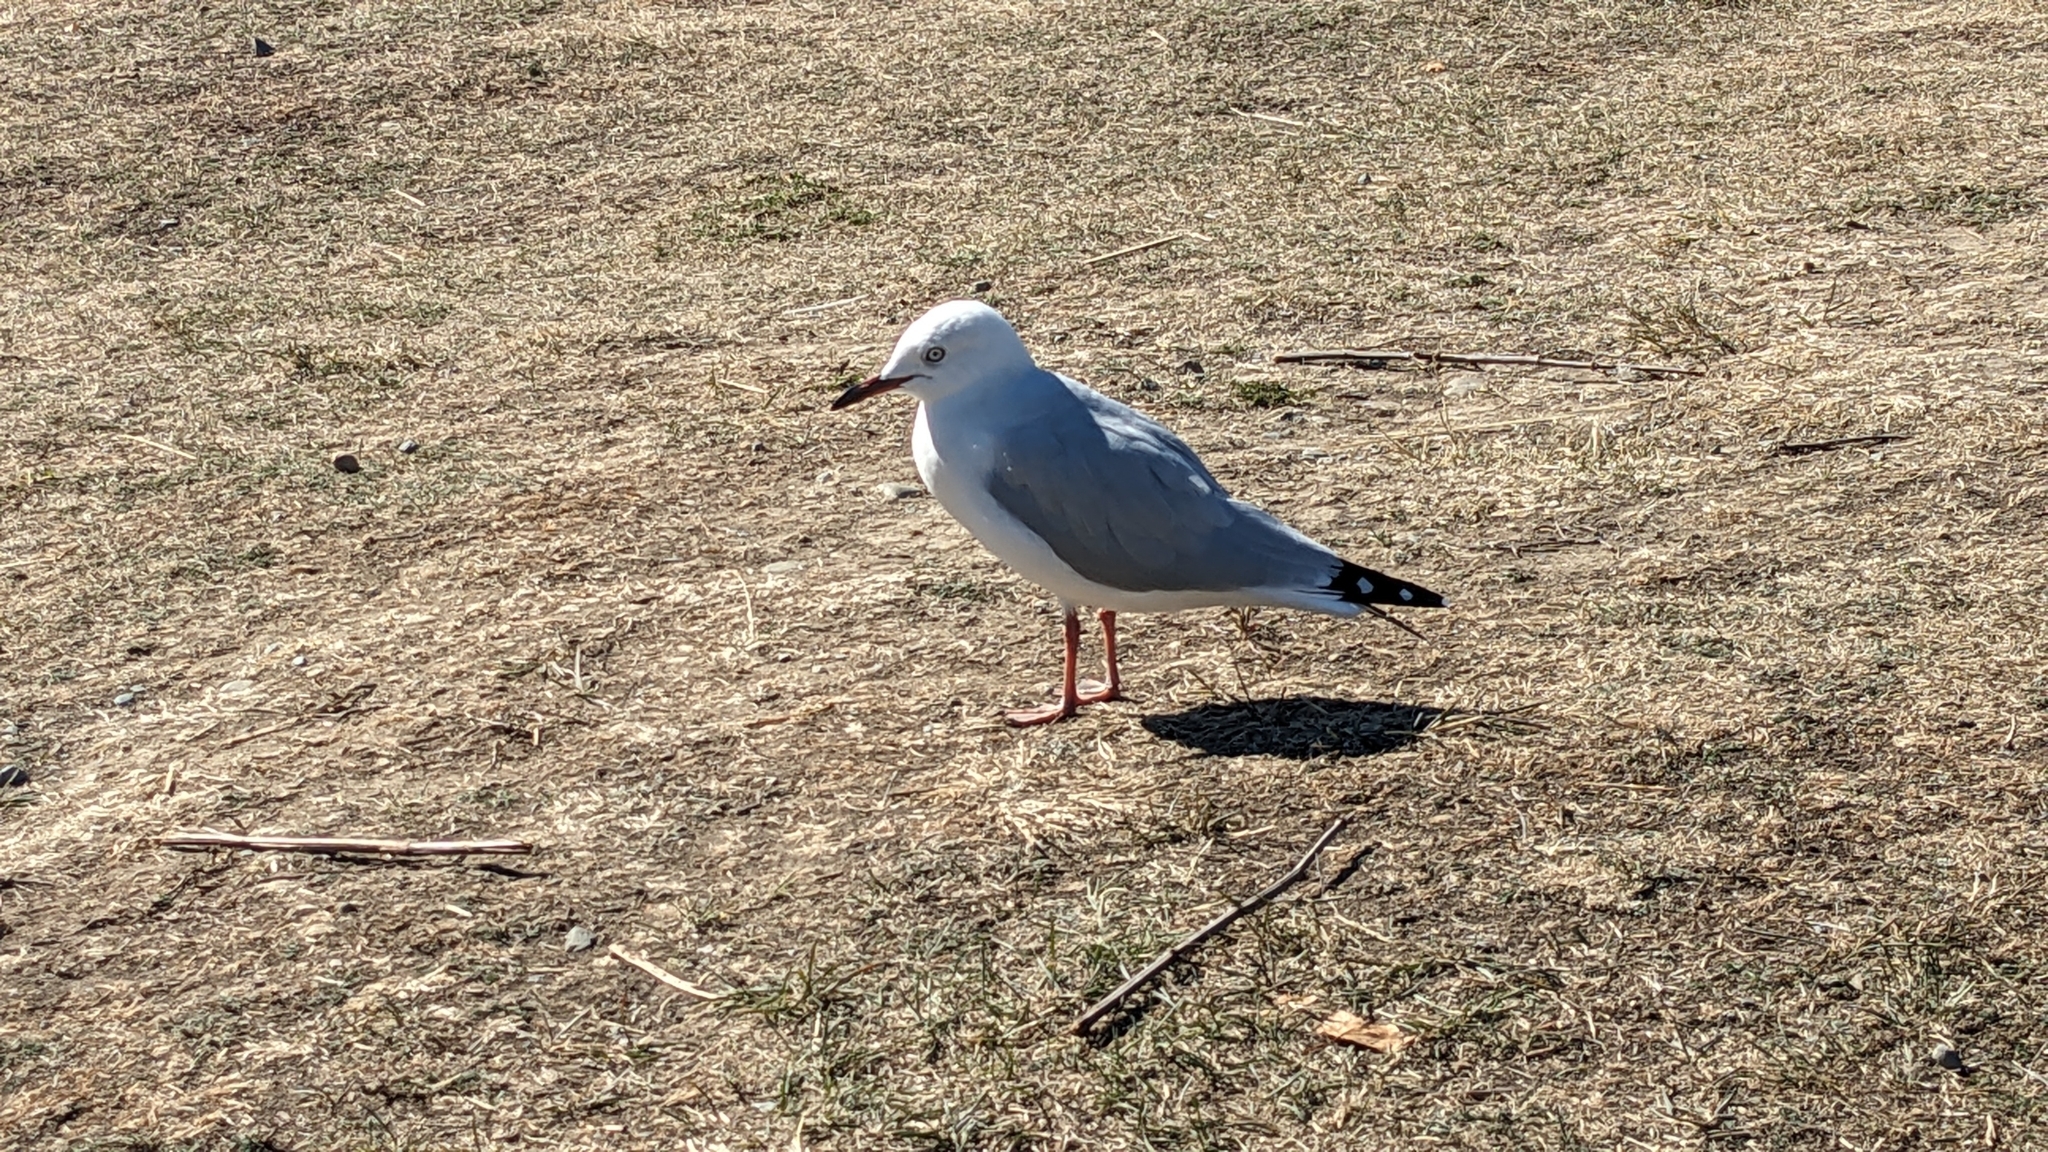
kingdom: Animalia
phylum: Chordata
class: Aves
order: Charadriiformes
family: Laridae
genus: Chroicocephalus
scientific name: Chroicocephalus novaehollandiae
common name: Silver gull
